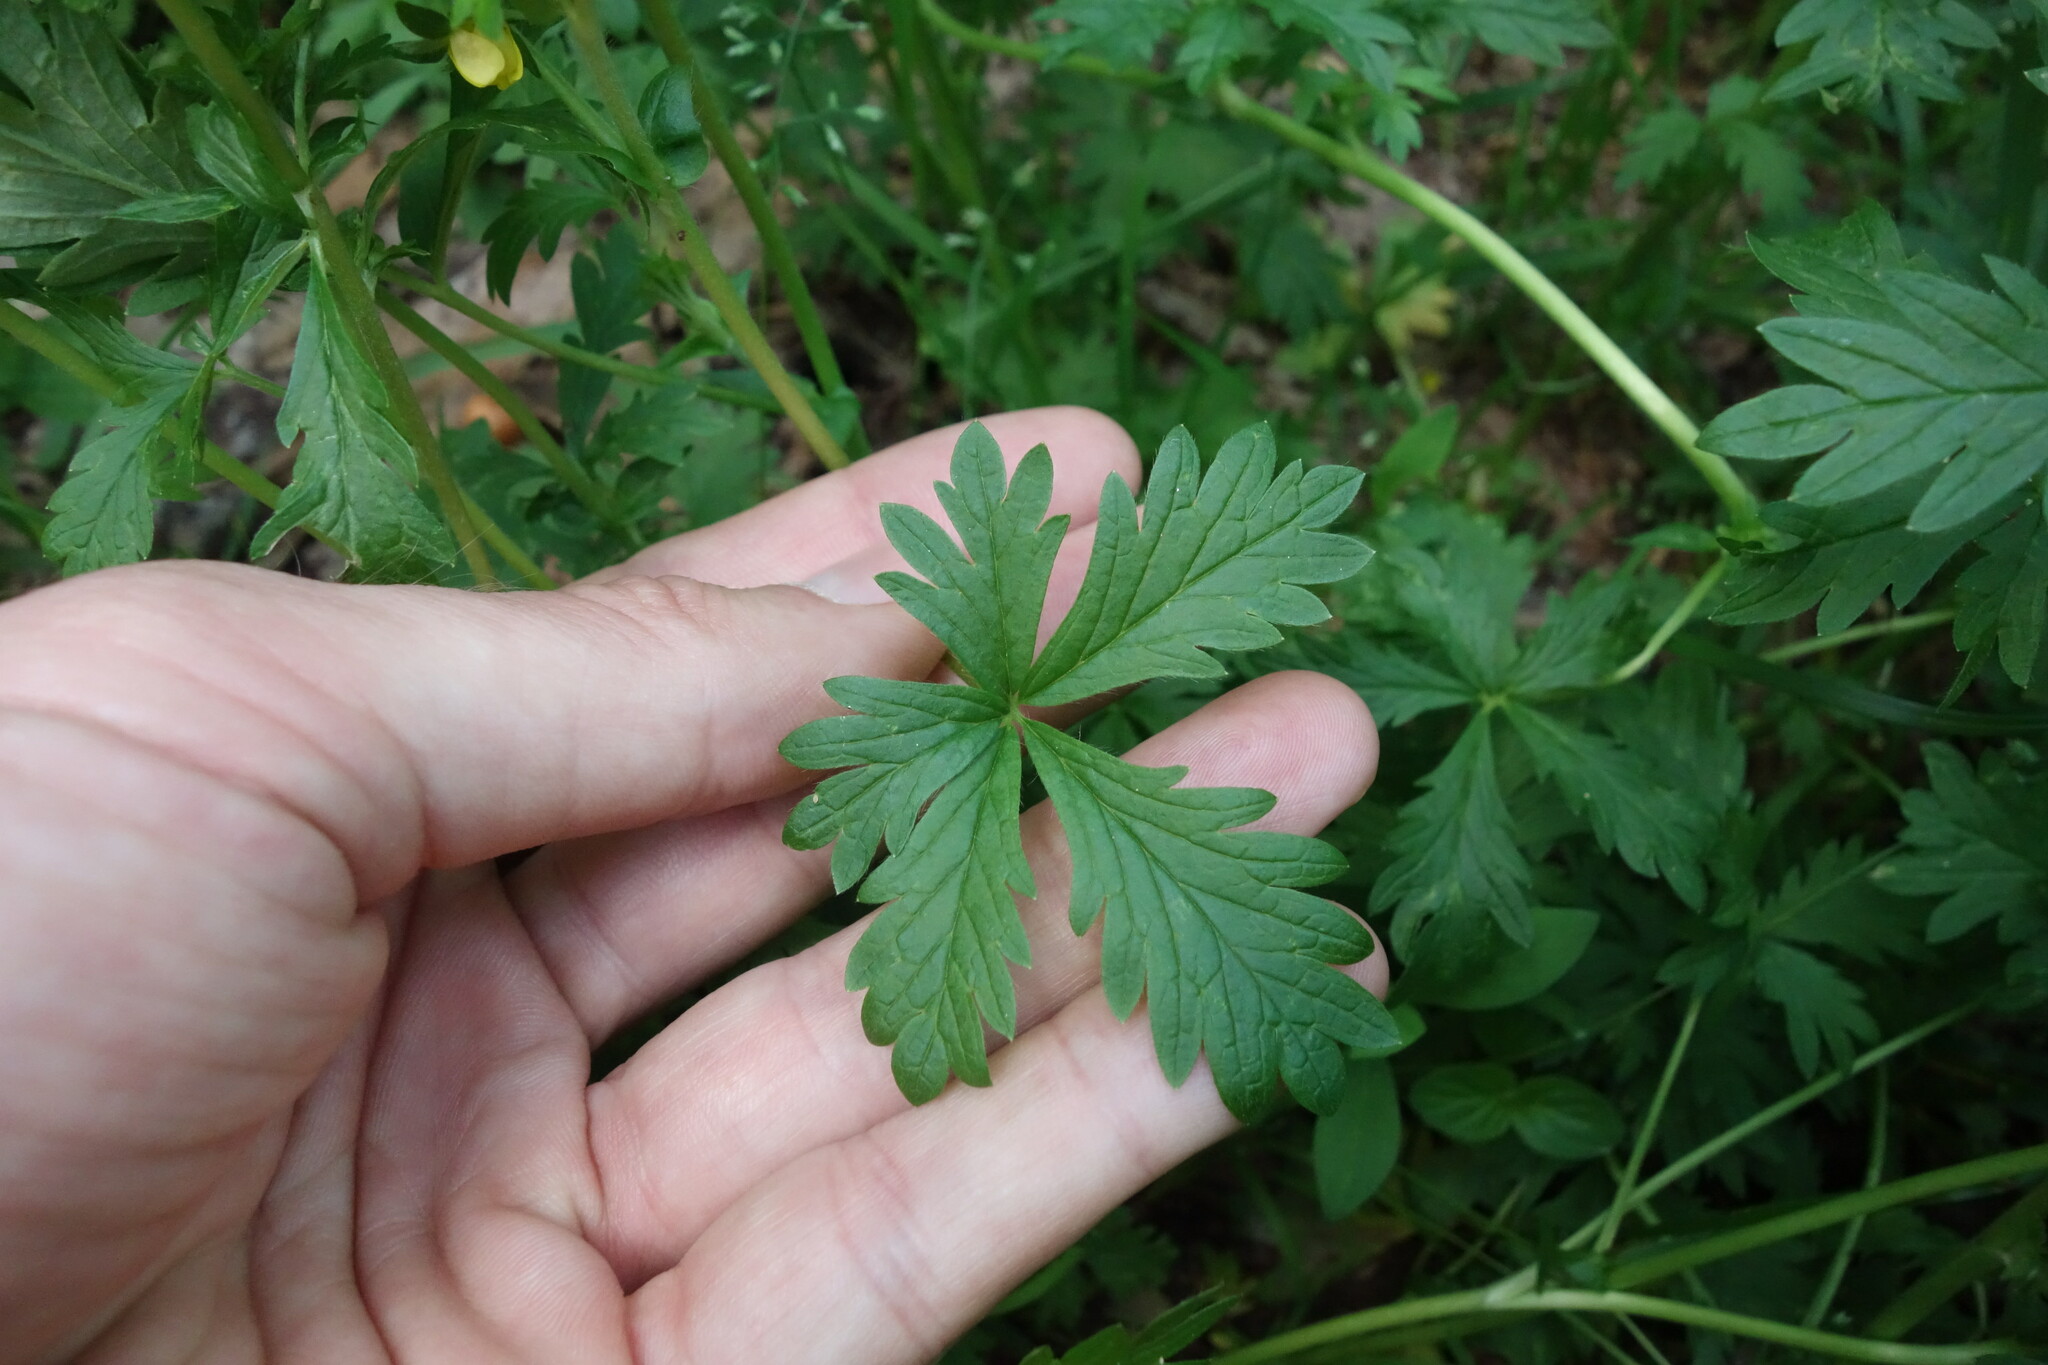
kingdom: Plantae
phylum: Tracheophyta
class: Magnoliopsida
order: Rosales
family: Rosaceae
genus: Potentilla
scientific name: Potentilla intermedia
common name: Downy cinquefoil
